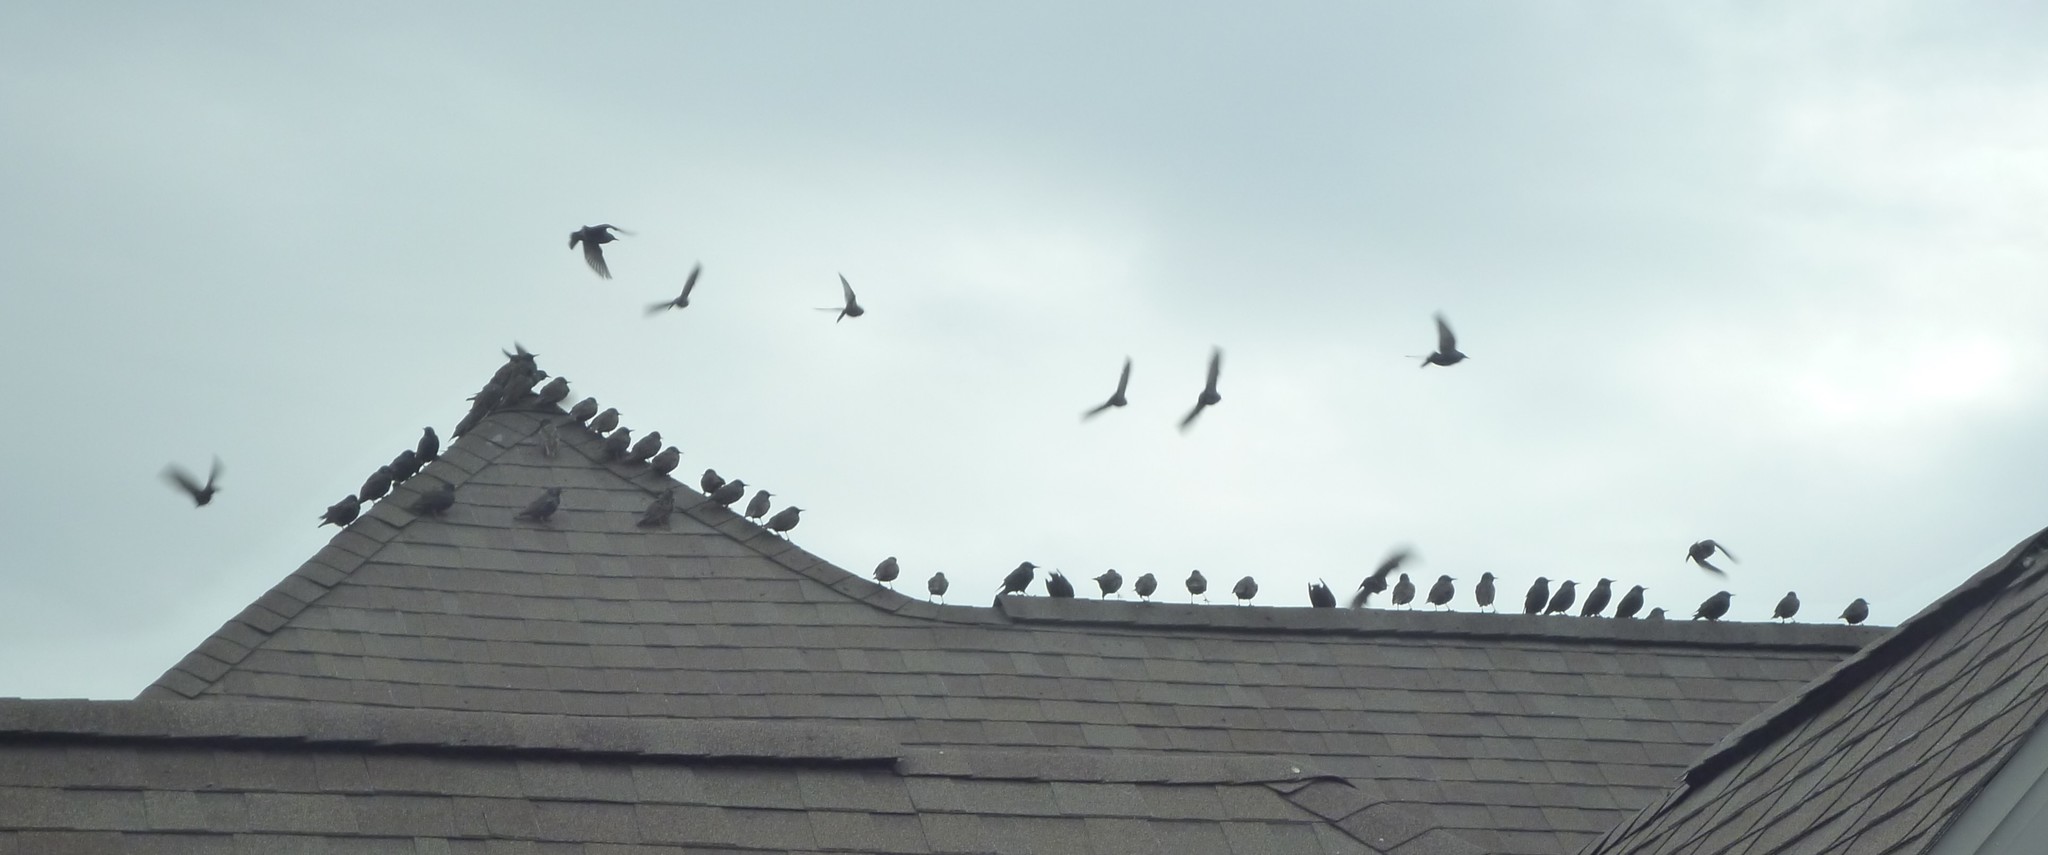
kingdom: Animalia
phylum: Chordata
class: Aves
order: Passeriformes
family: Sturnidae
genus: Sturnus
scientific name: Sturnus vulgaris
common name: Common starling
